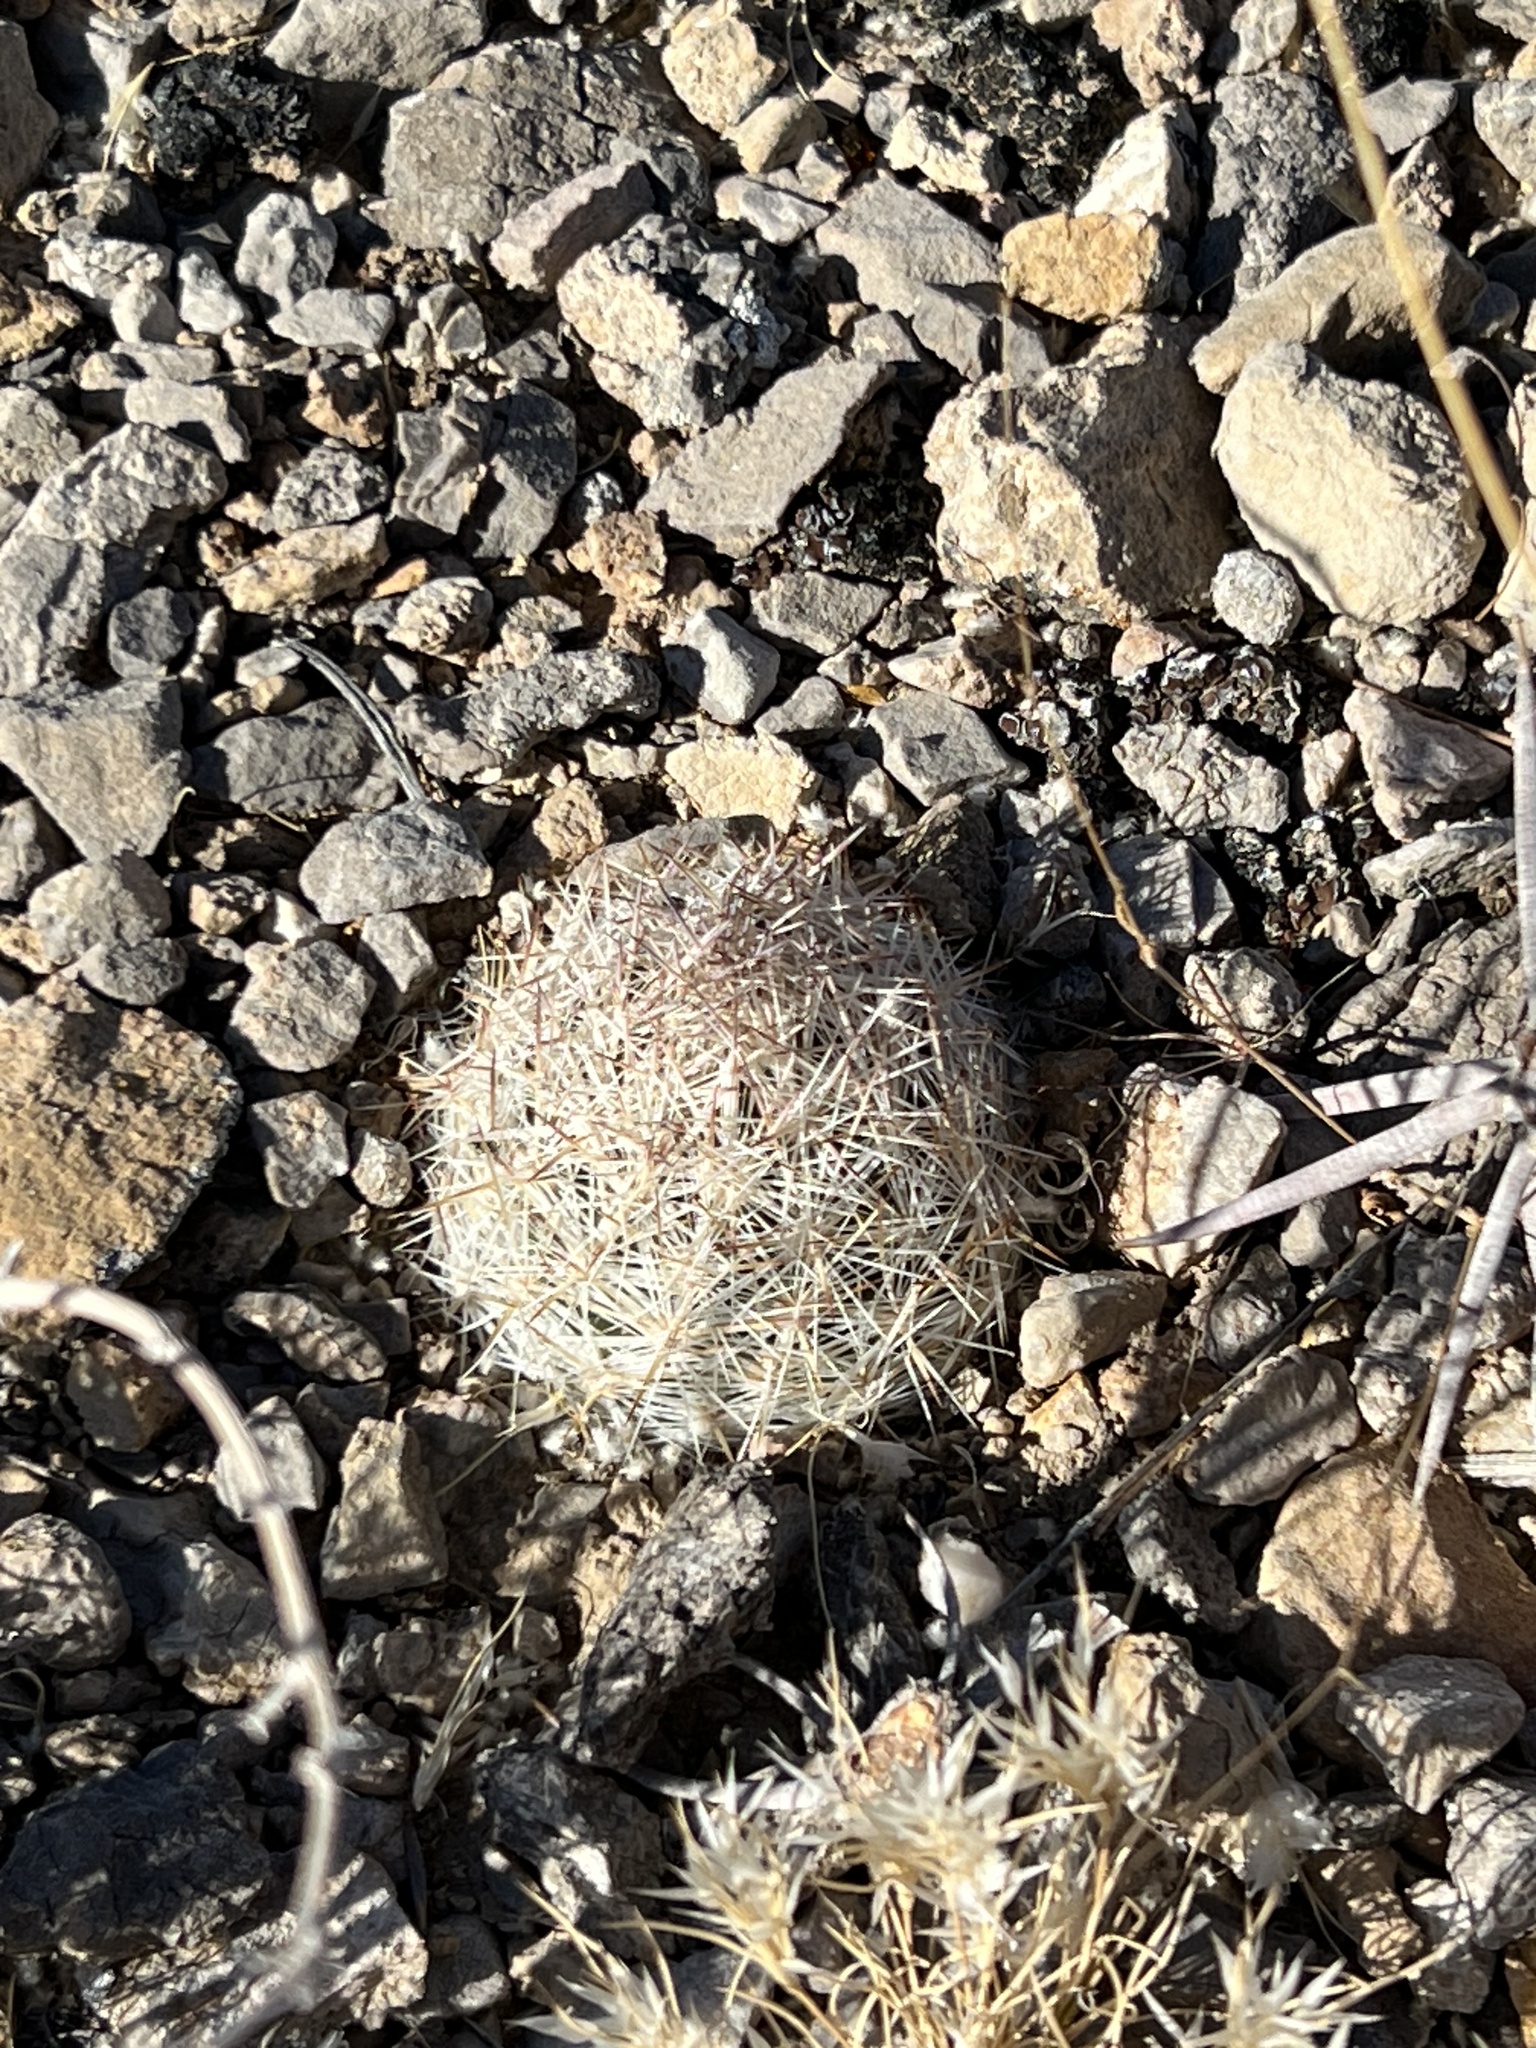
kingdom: Plantae
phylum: Tracheophyta
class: Magnoliopsida
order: Caryophyllales
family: Cactaceae
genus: Pelecyphora
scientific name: Pelecyphora dasyacantha
